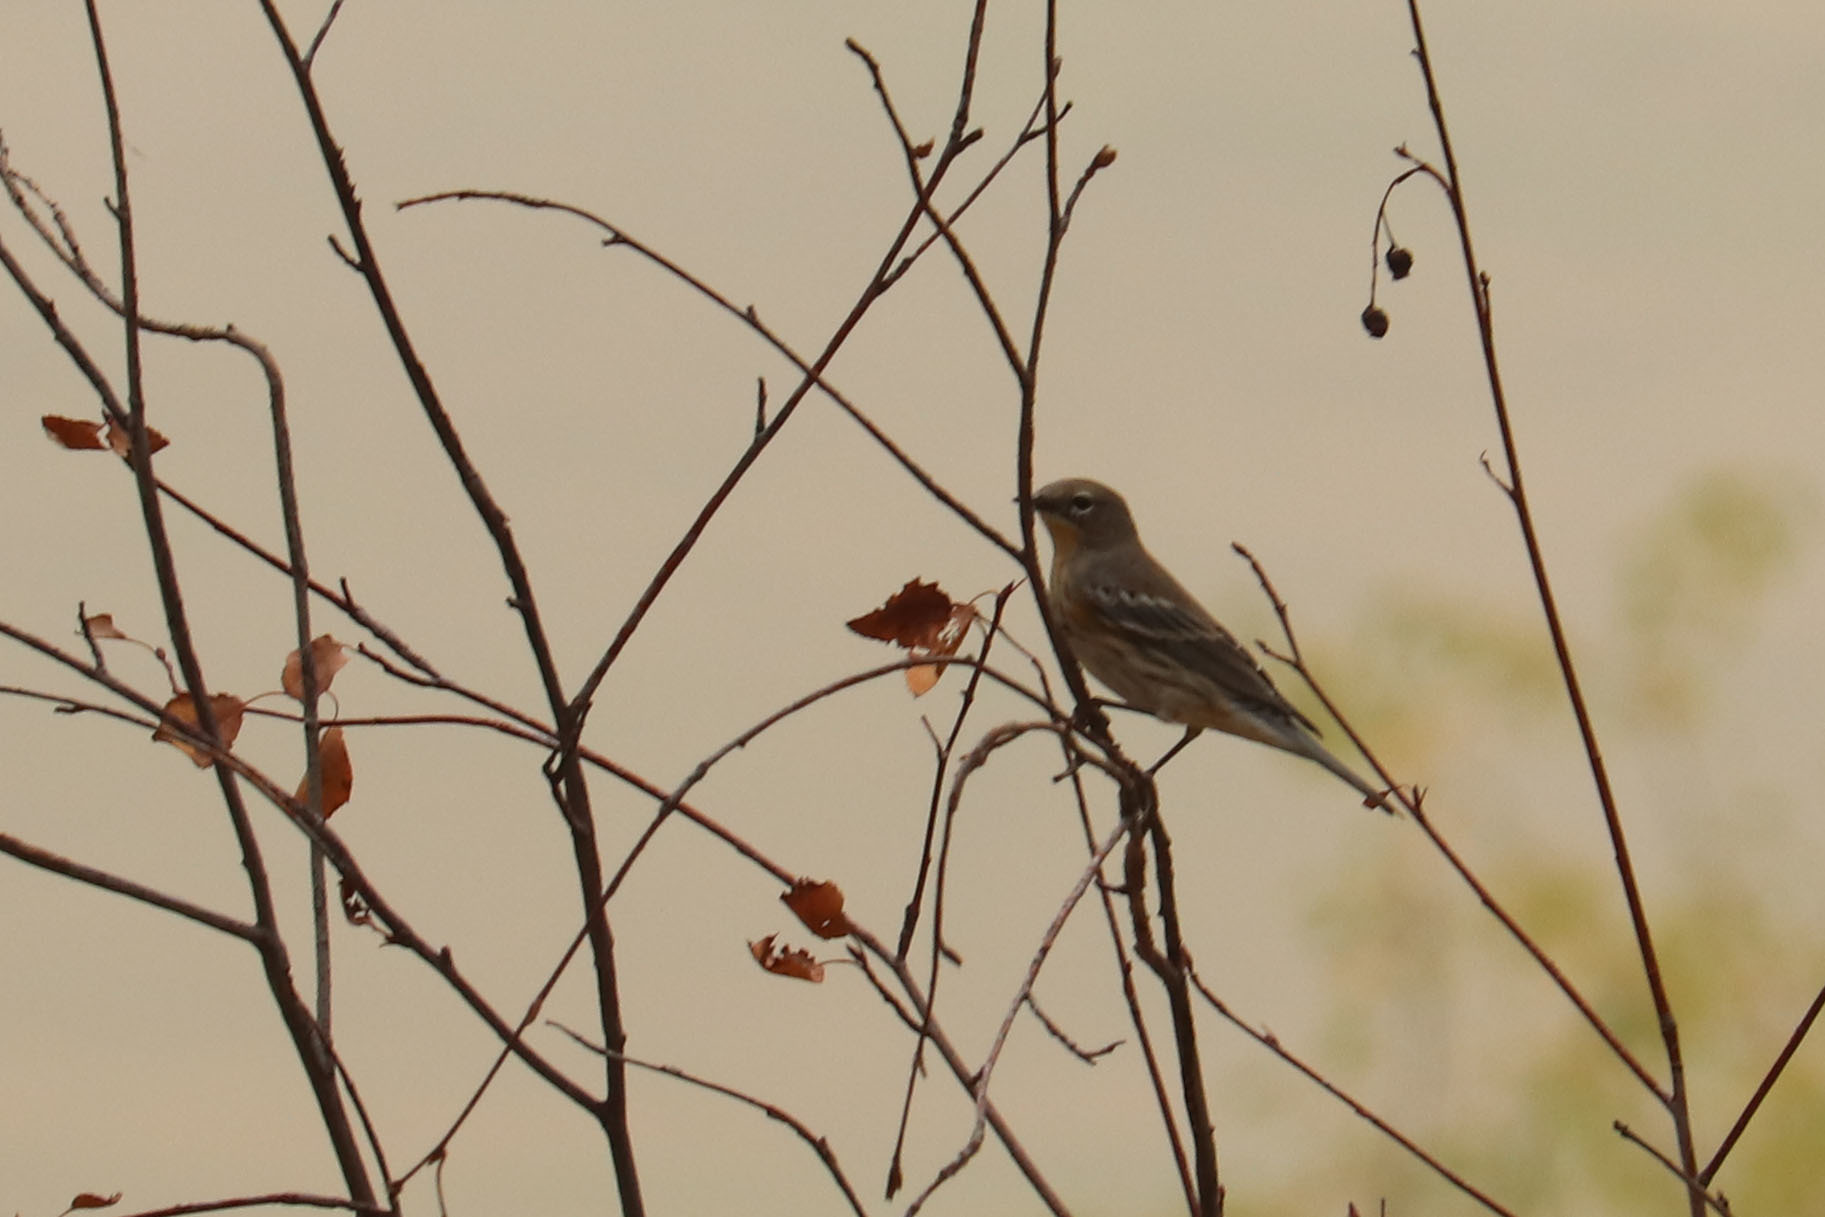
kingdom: Animalia
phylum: Chordata
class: Aves
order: Passeriformes
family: Parulidae
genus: Setophaga
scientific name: Setophaga coronata
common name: Myrtle warbler
